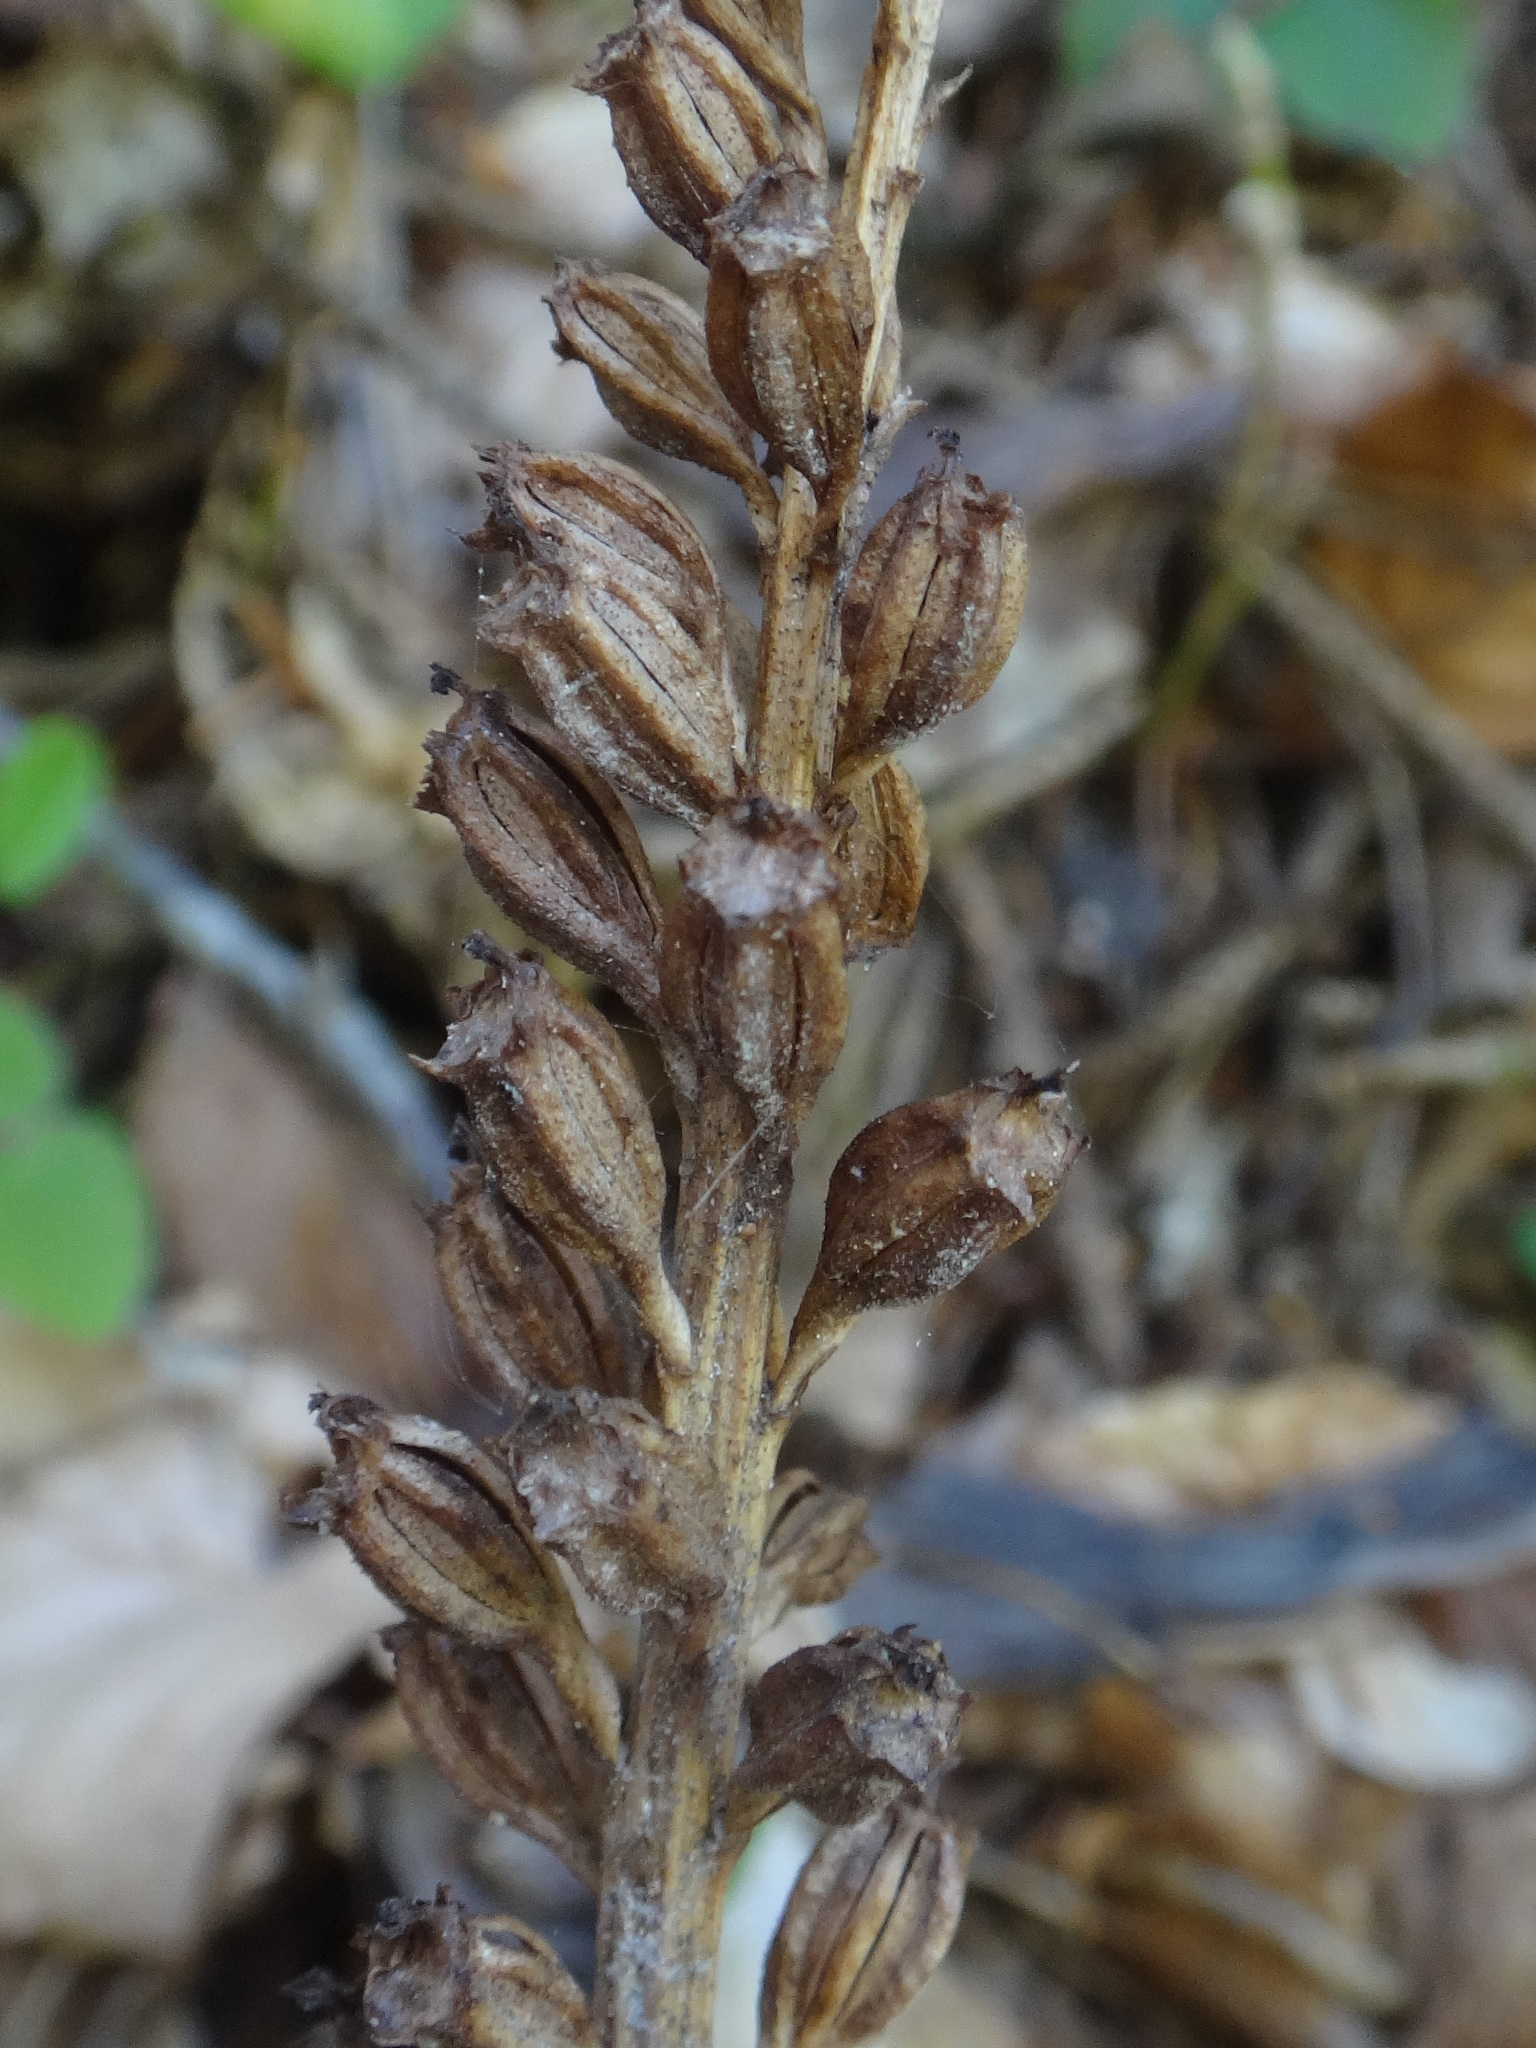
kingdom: Plantae
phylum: Tracheophyta
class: Liliopsida
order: Asparagales
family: Orchidaceae
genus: Neottia
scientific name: Neottia nidus-avis
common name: Bird's-nest orchid
